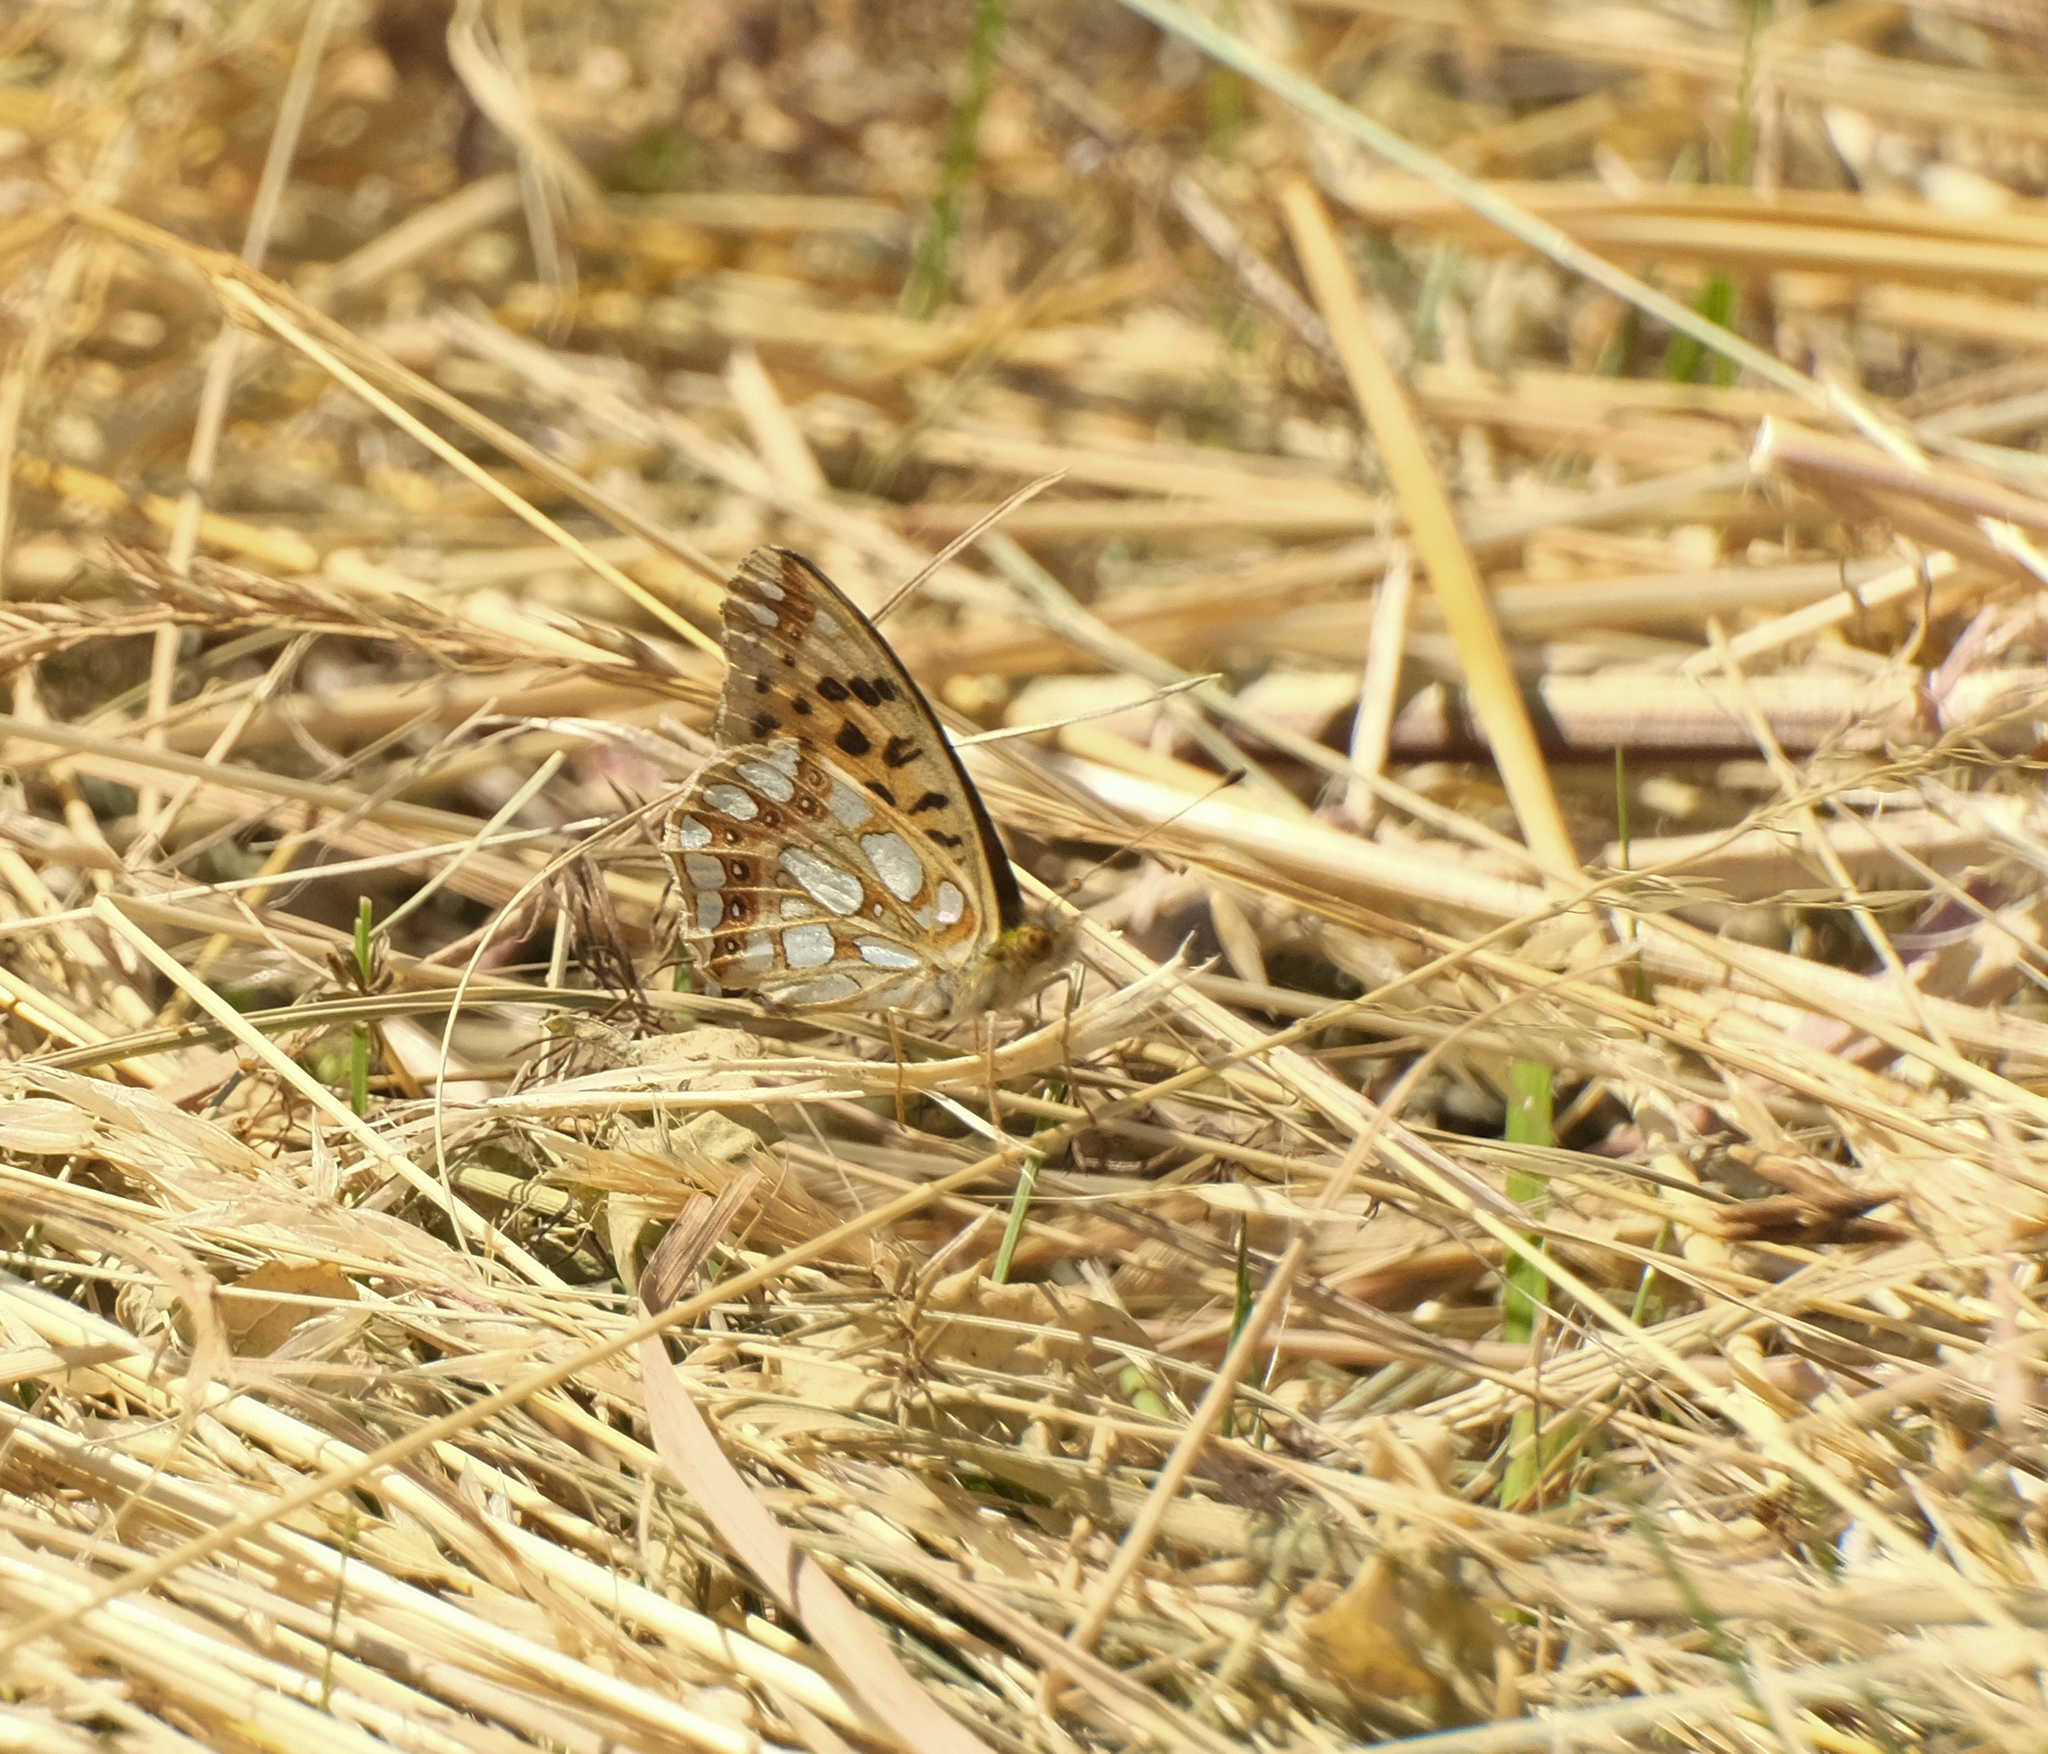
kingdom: Animalia
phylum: Arthropoda
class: Insecta
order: Lepidoptera
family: Nymphalidae
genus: Issoria
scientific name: Issoria lathonia
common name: Queen of spain fritillary
